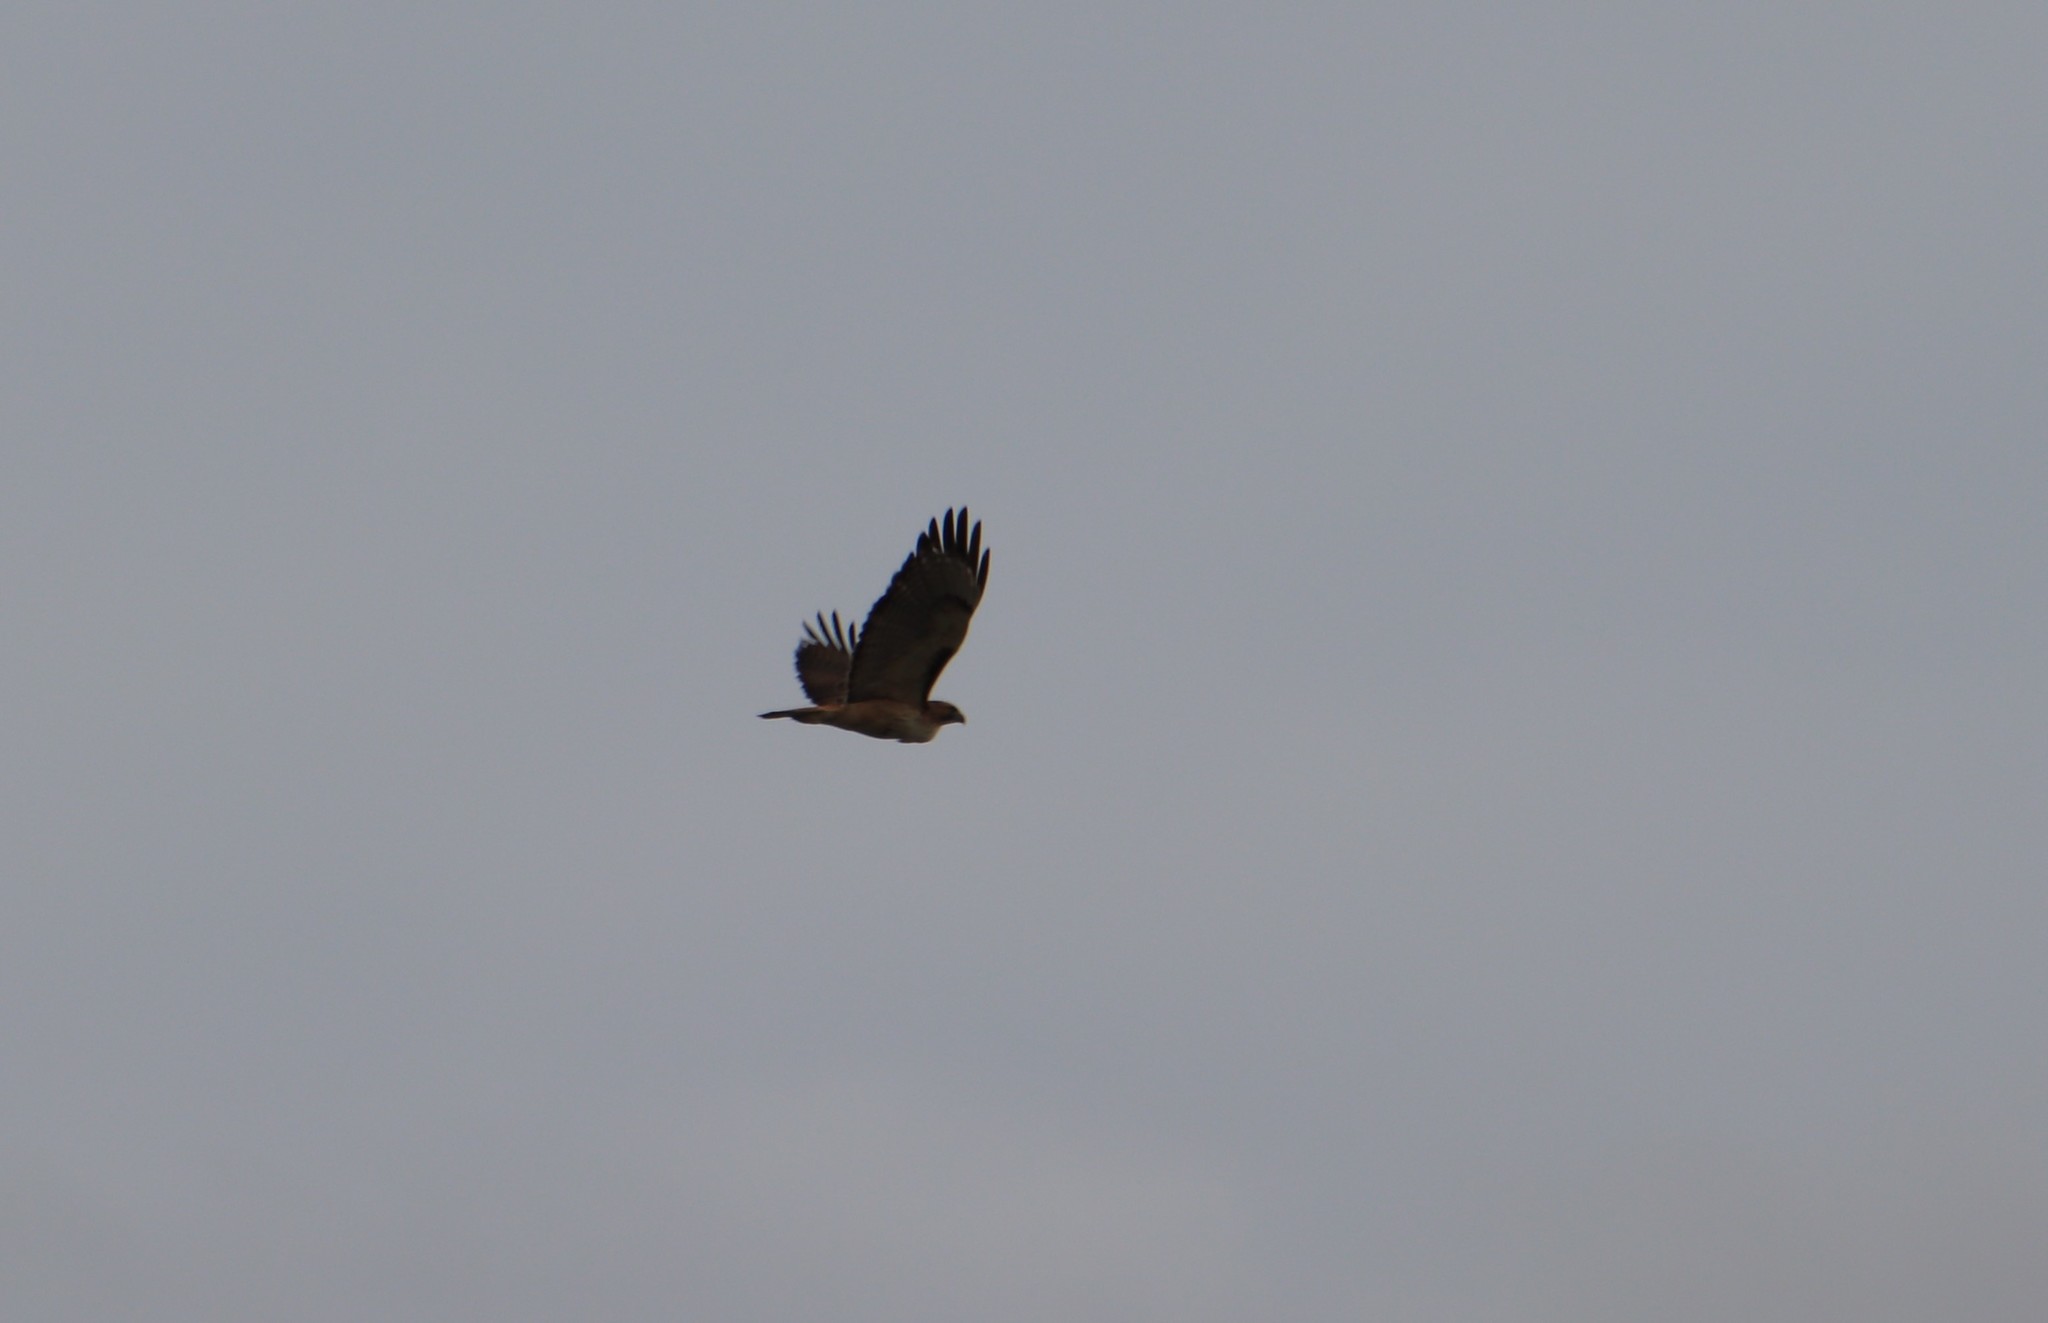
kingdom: Animalia
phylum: Chordata
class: Aves
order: Accipitriformes
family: Accipitridae
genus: Buteo
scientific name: Buteo jamaicensis
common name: Red-tailed hawk
